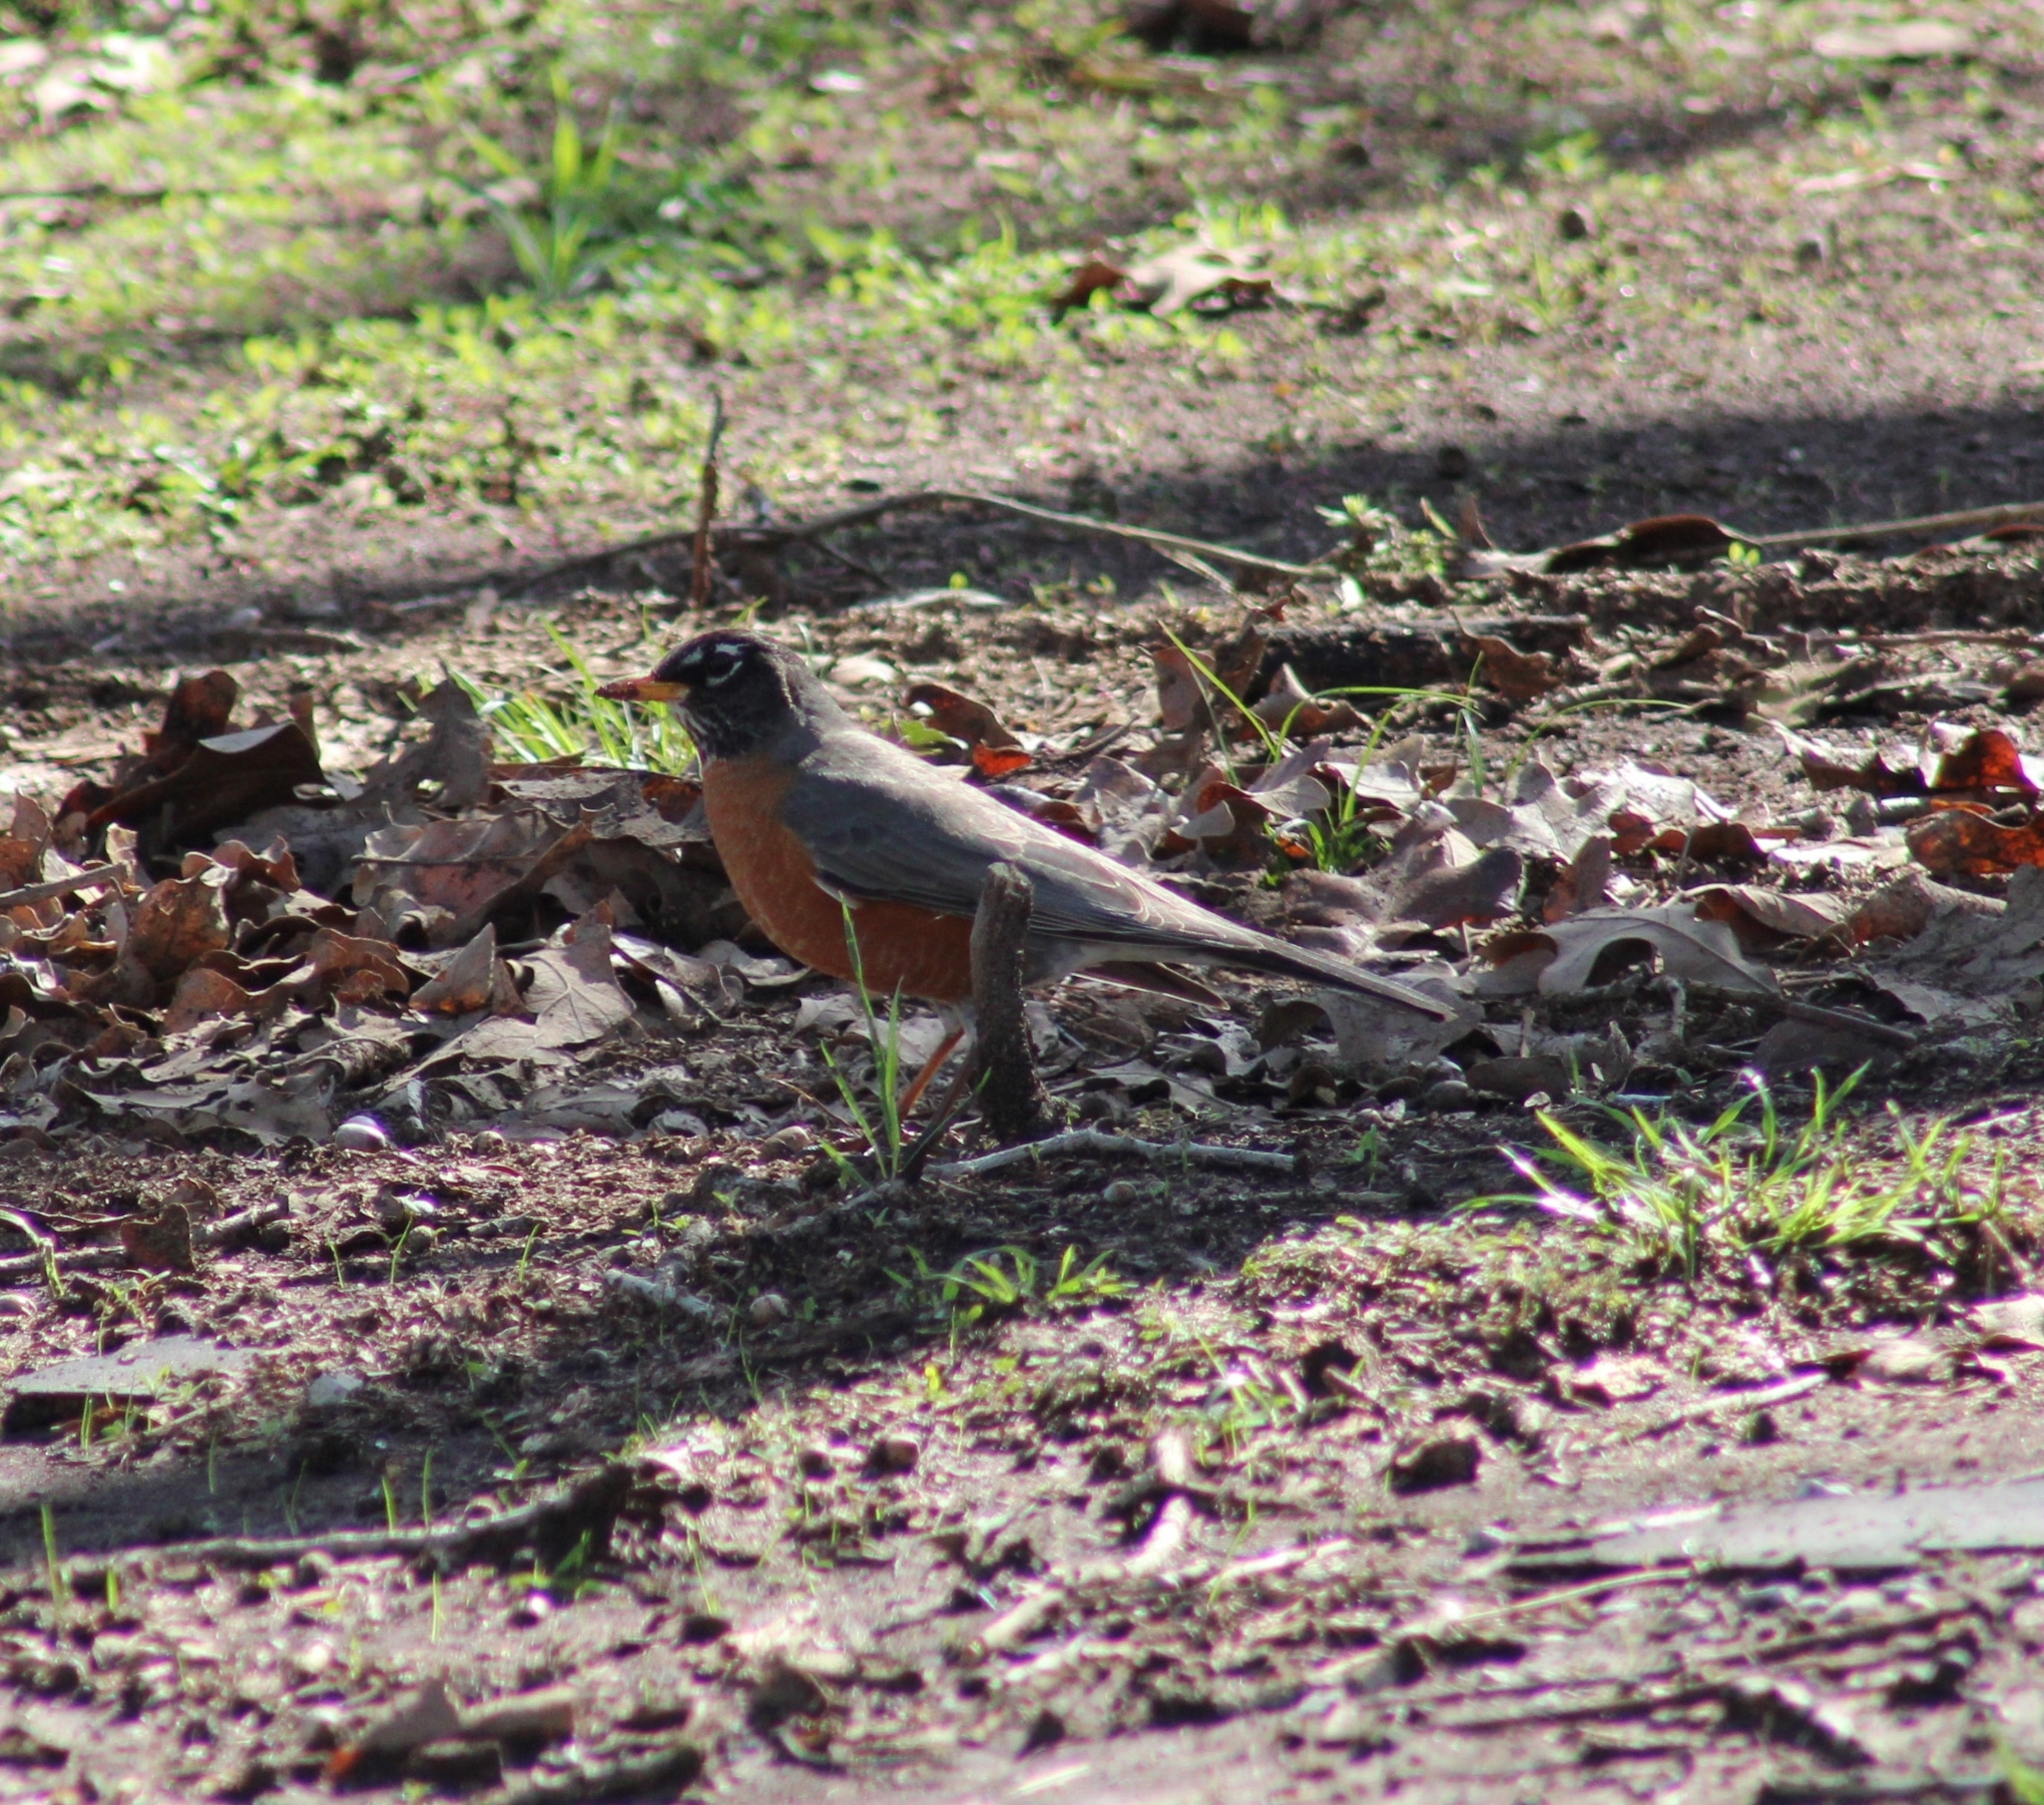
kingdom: Animalia
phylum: Chordata
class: Aves
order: Passeriformes
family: Turdidae
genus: Turdus
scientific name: Turdus migratorius
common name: American robin
